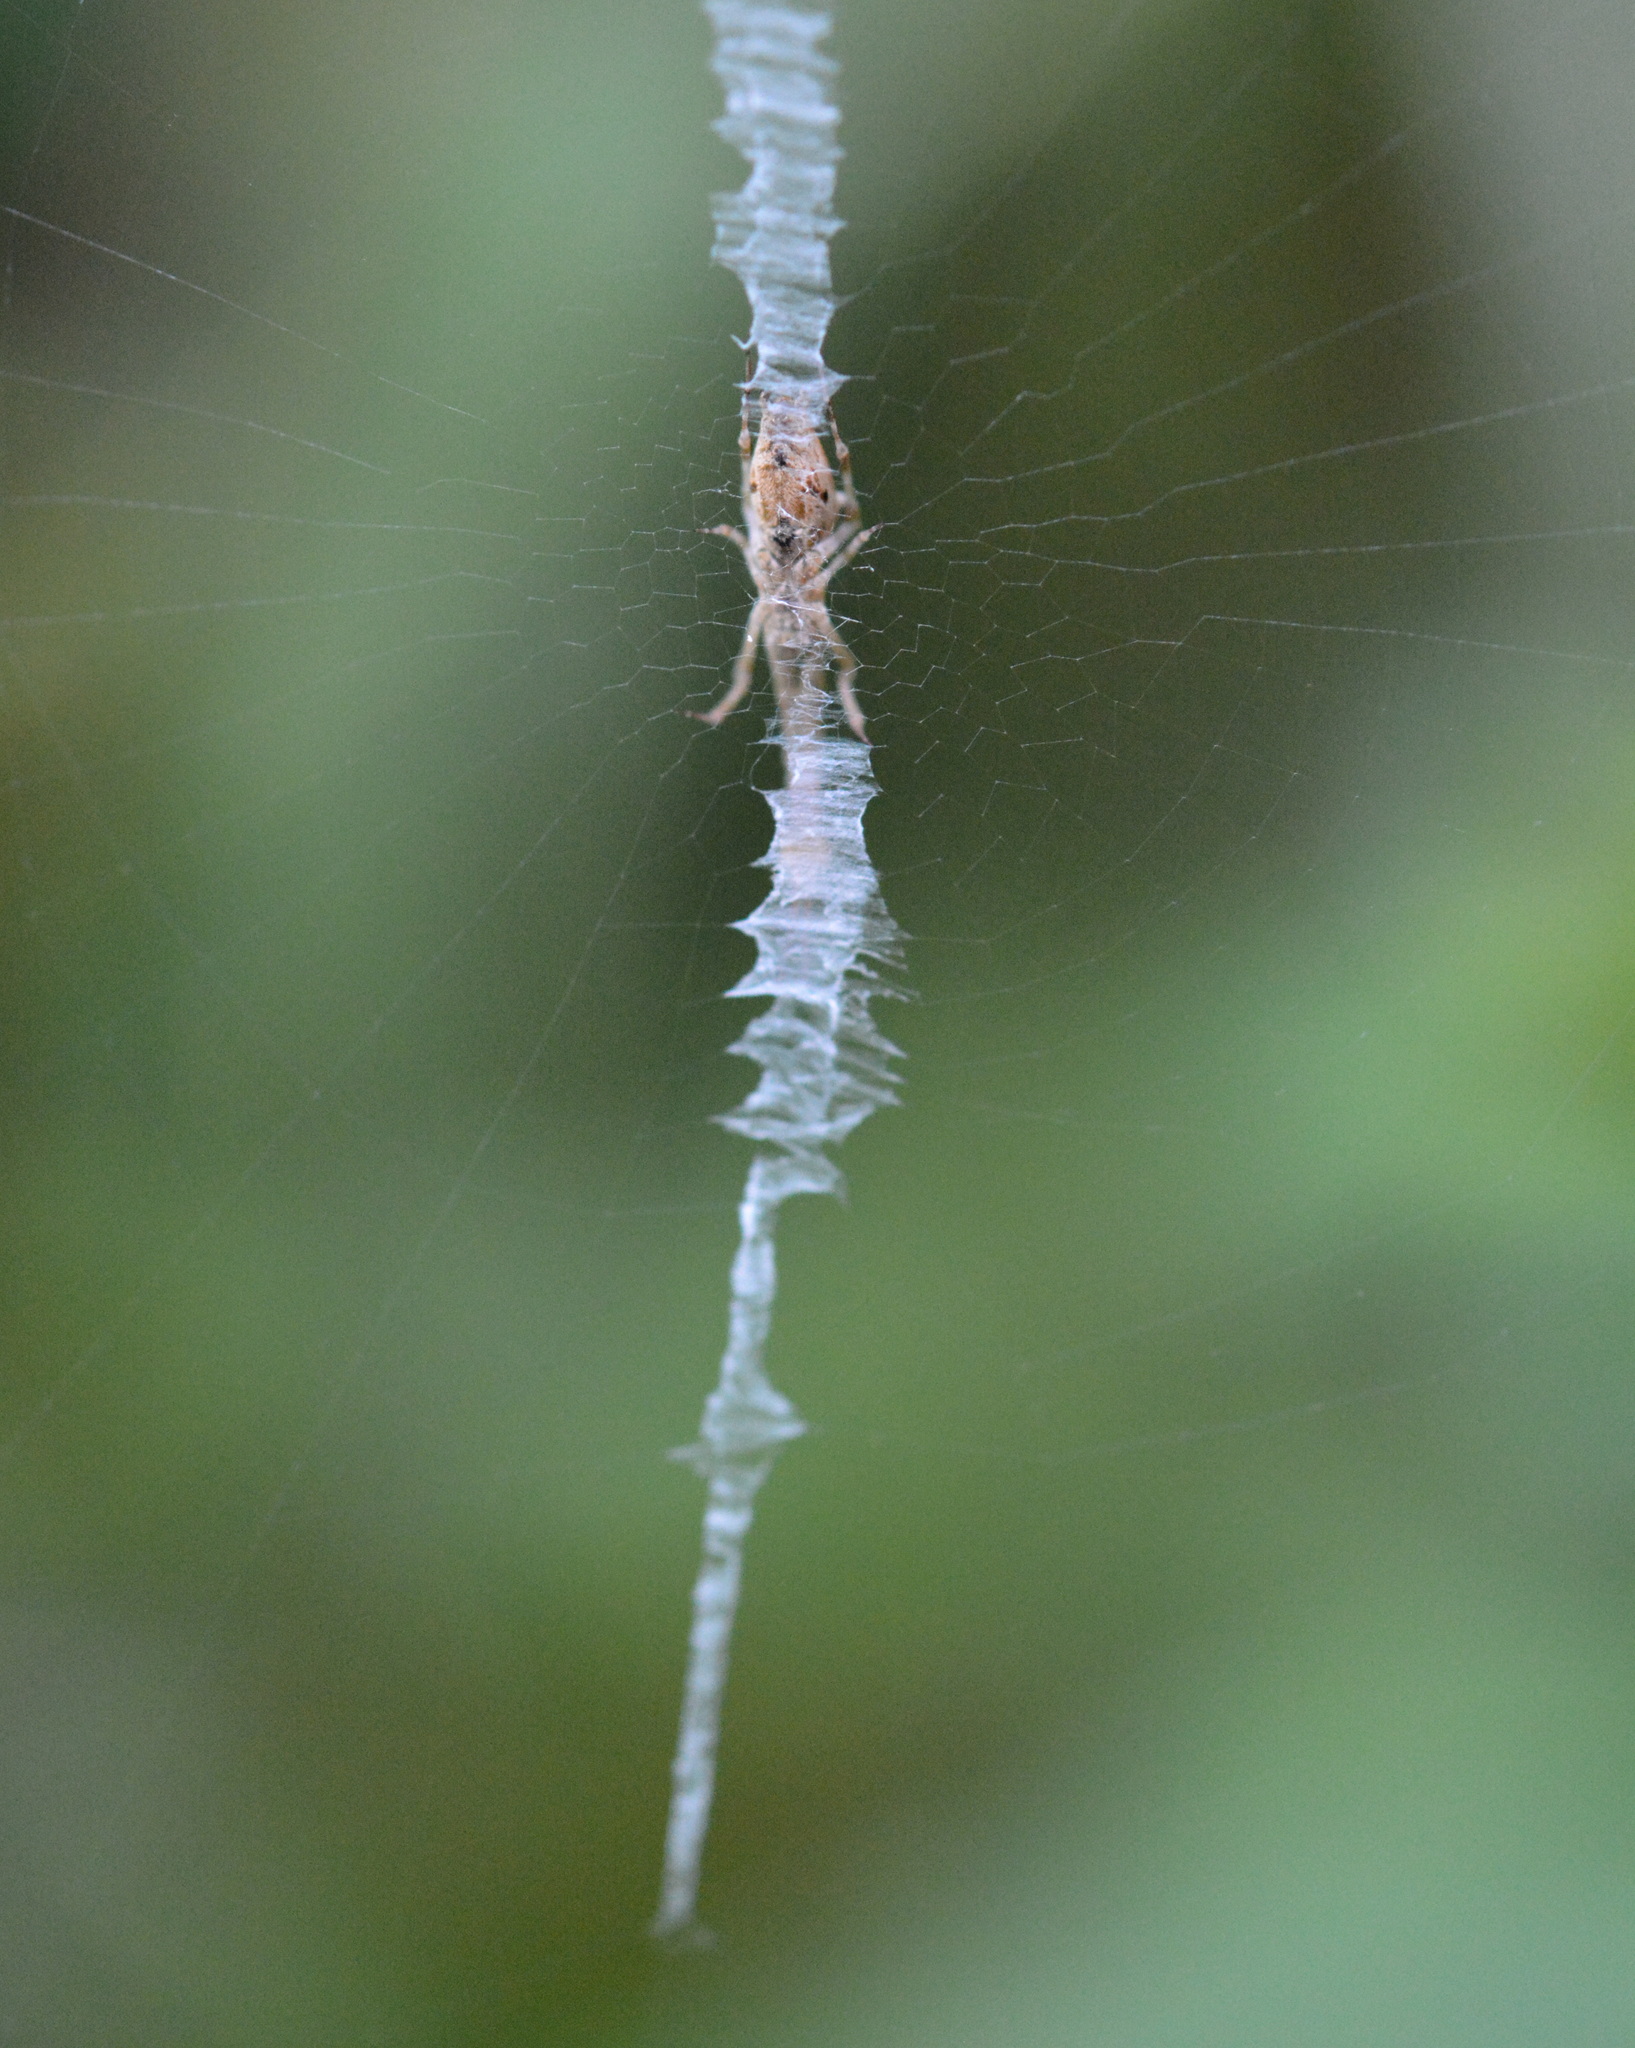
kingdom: Animalia
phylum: Arthropoda
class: Arachnida
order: Araneae
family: Uloboridae
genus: Uloborus
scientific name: Uloborus glomosus
